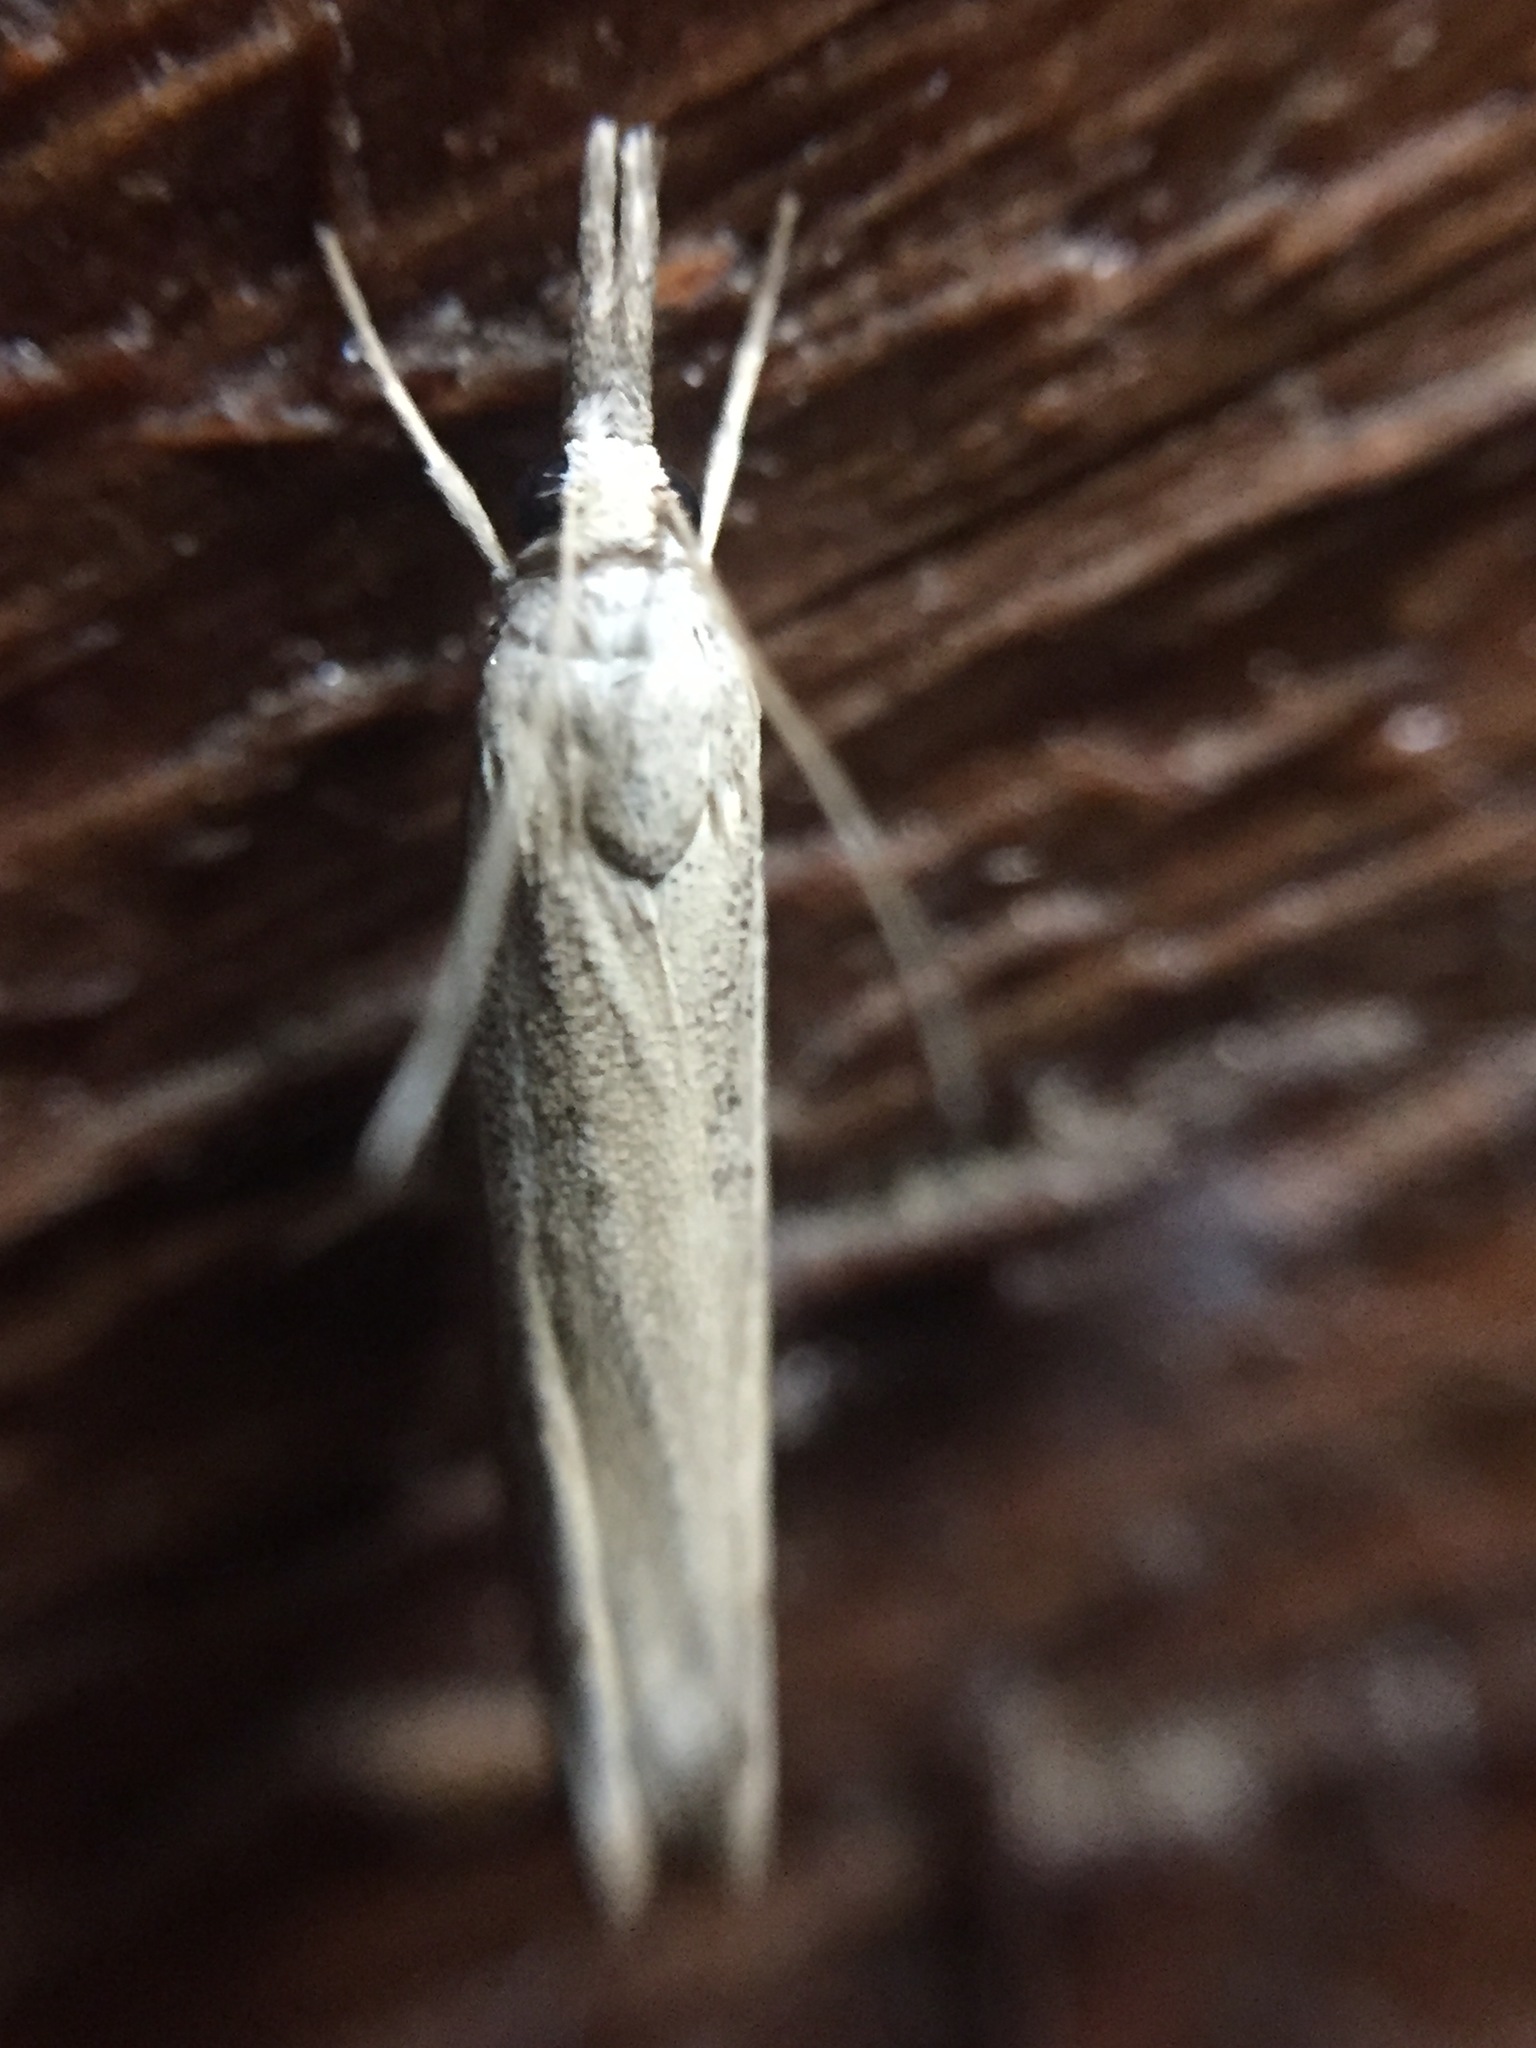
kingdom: Animalia
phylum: Arthropoda
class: Insecta
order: Lepidoptera
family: Crambidae
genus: Culladia
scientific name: Culladia cuneiferellus
